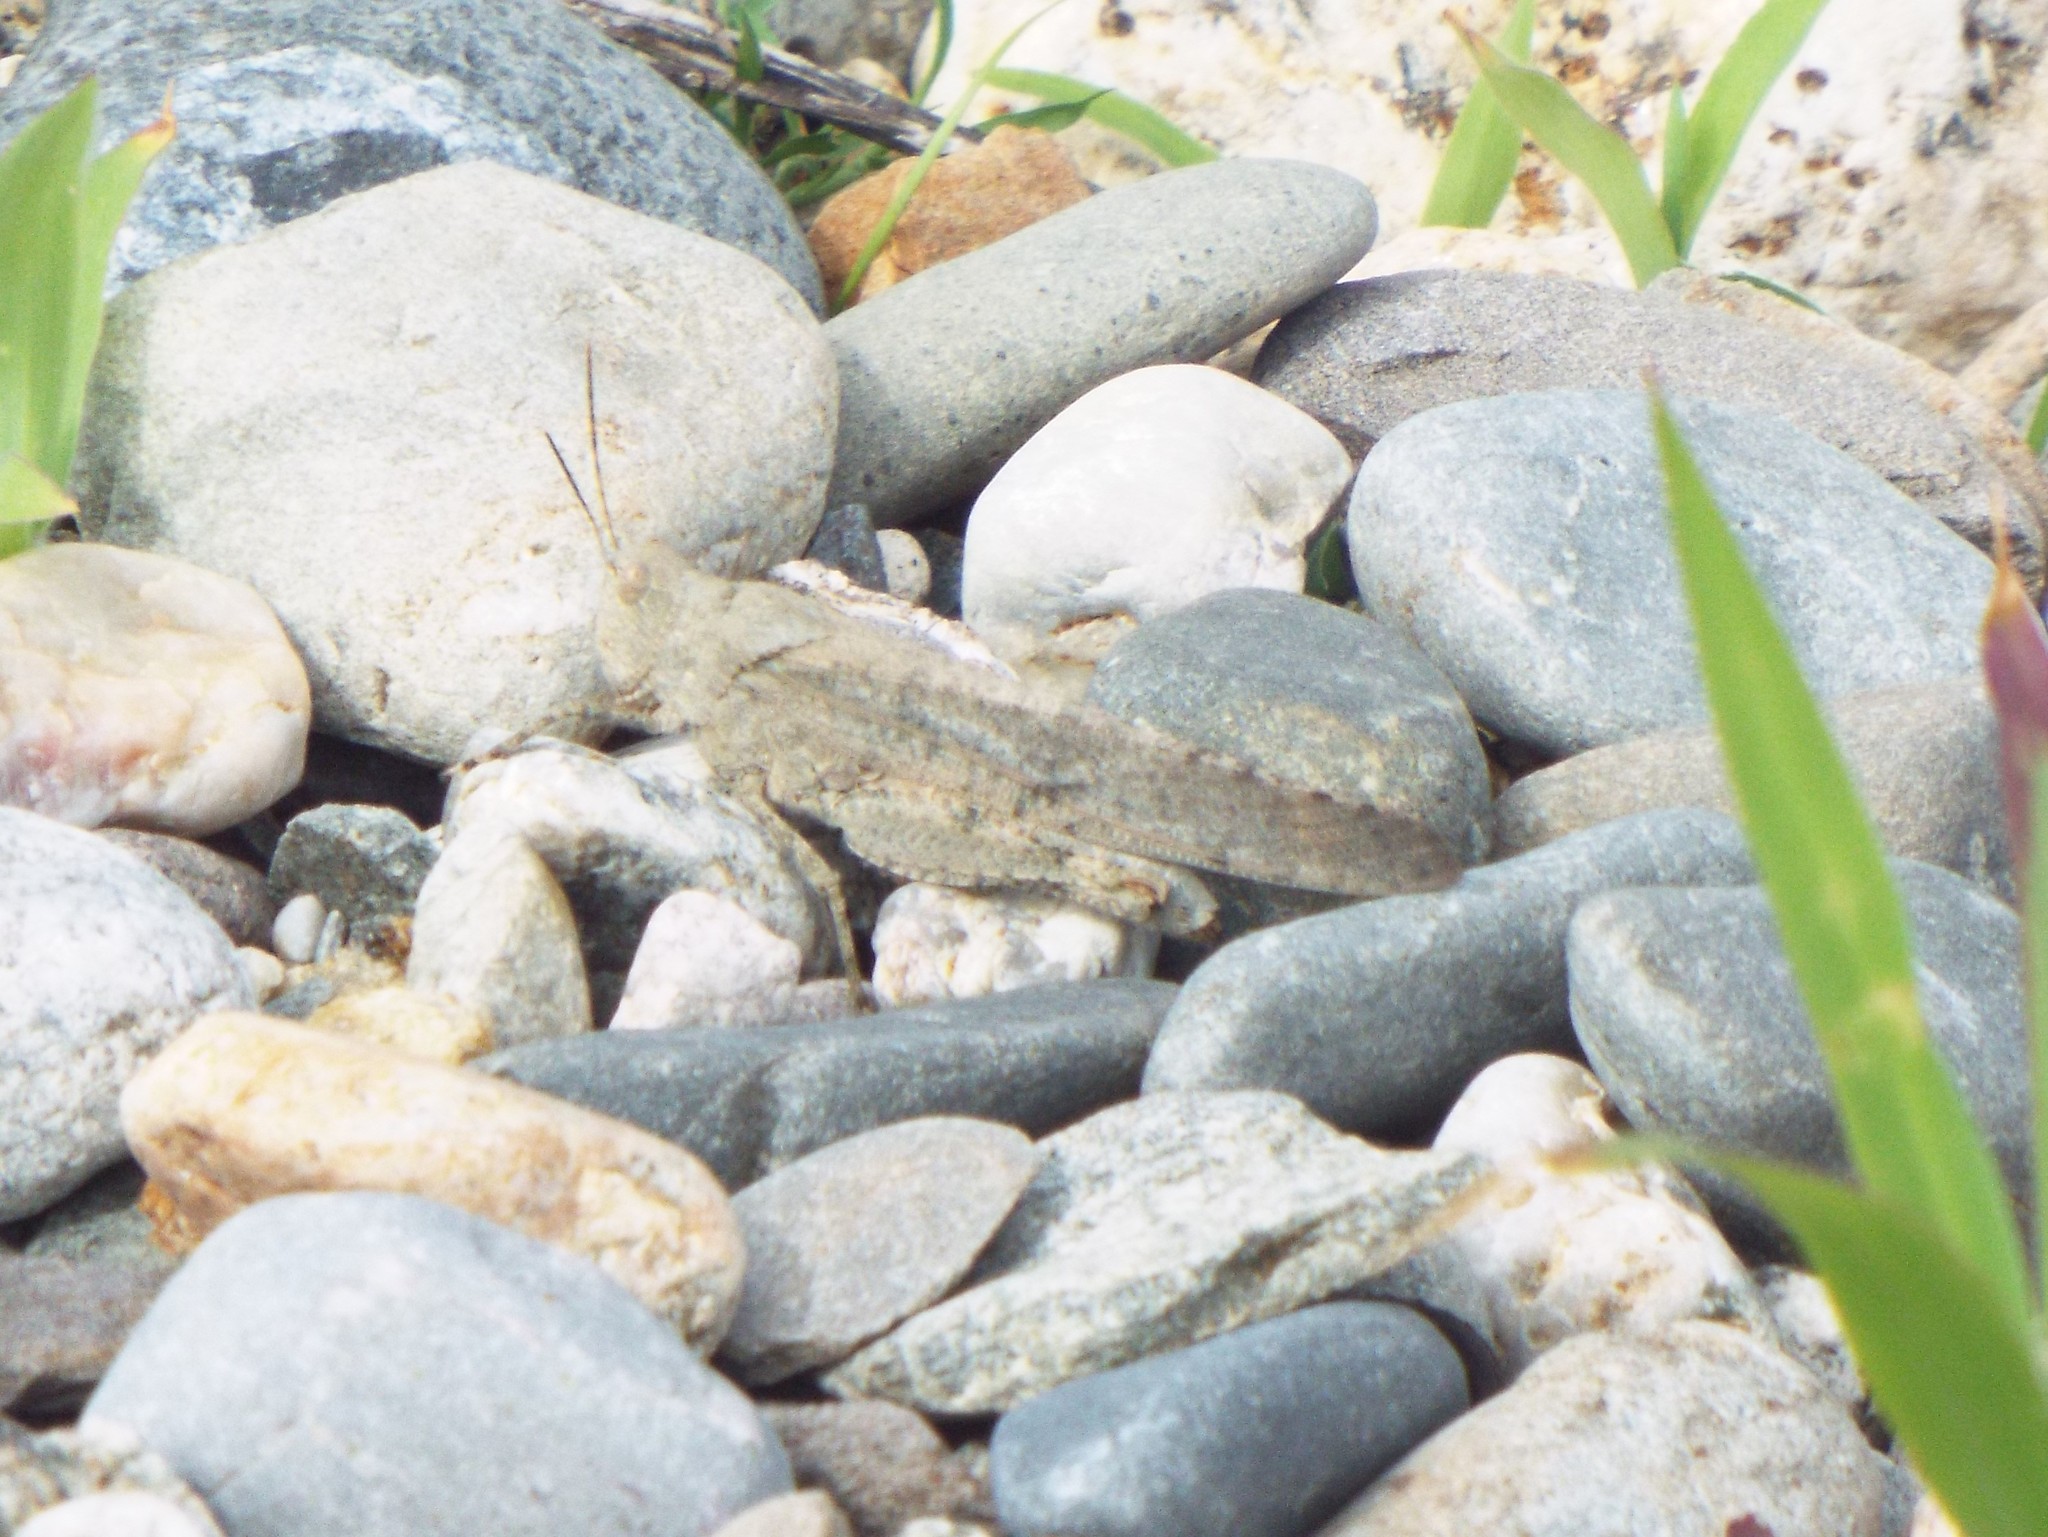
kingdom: Animalia
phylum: Arthropoda
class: Insecta
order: Orthoptera
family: Acrididae
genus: Dissosteira
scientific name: Dissosteira carolina
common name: Carolina grasshopper
